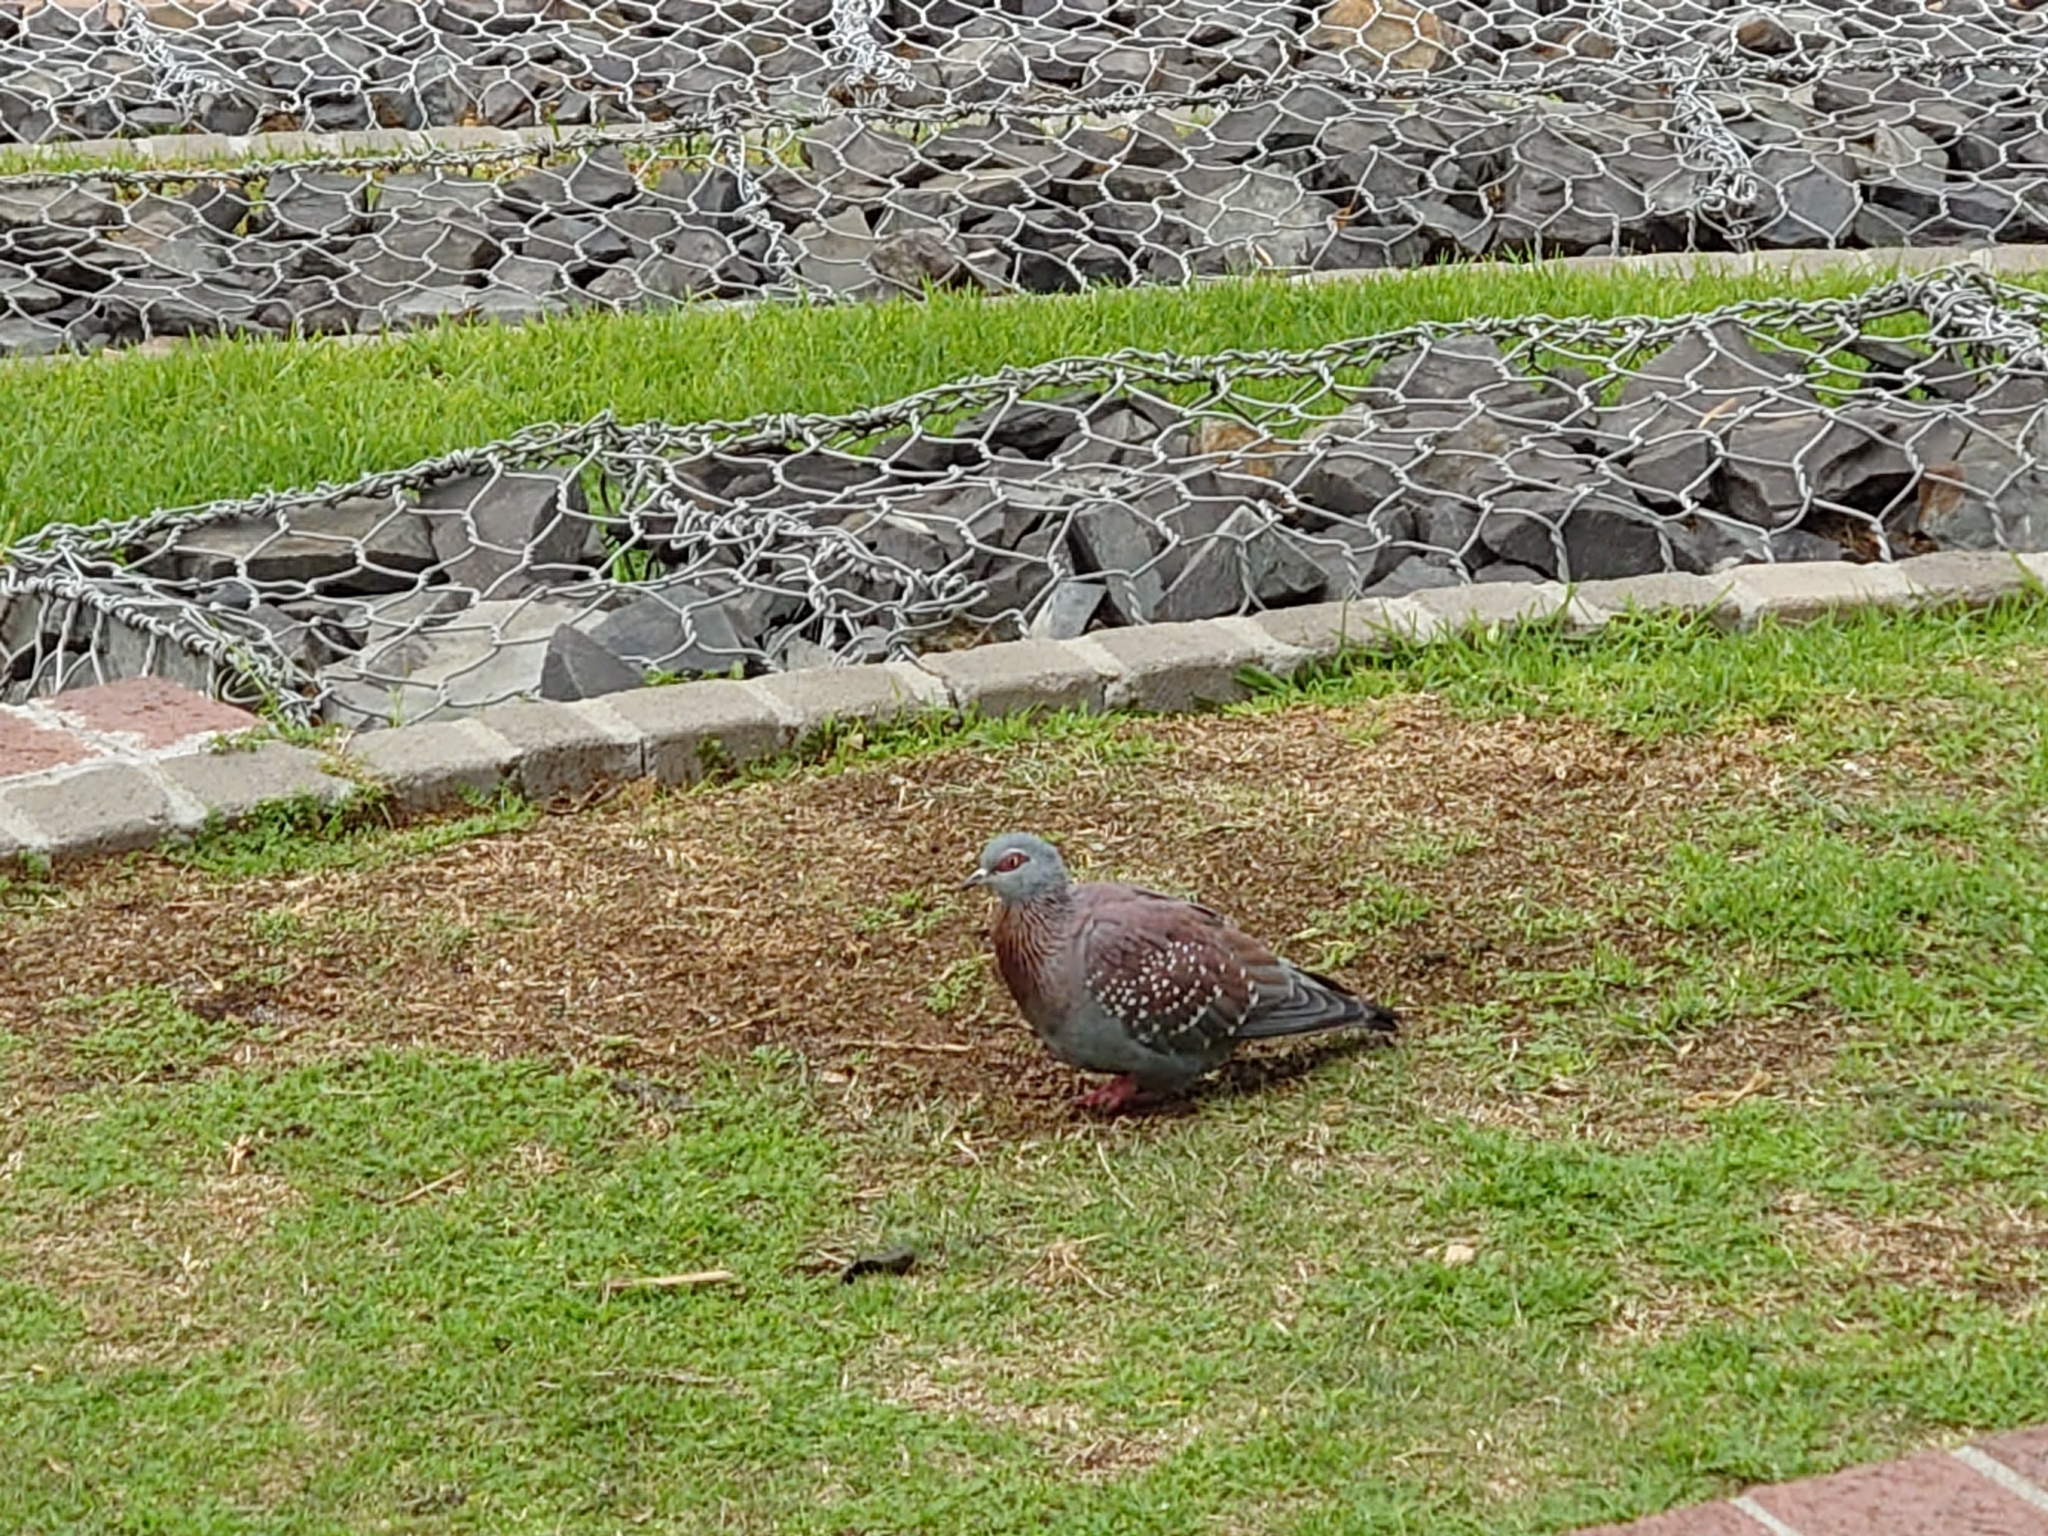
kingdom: Animalia
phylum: Chordata
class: Aves
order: Columbiformes
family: Columbidae
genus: Columba
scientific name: Columba guinea
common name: Speckled pigeon
